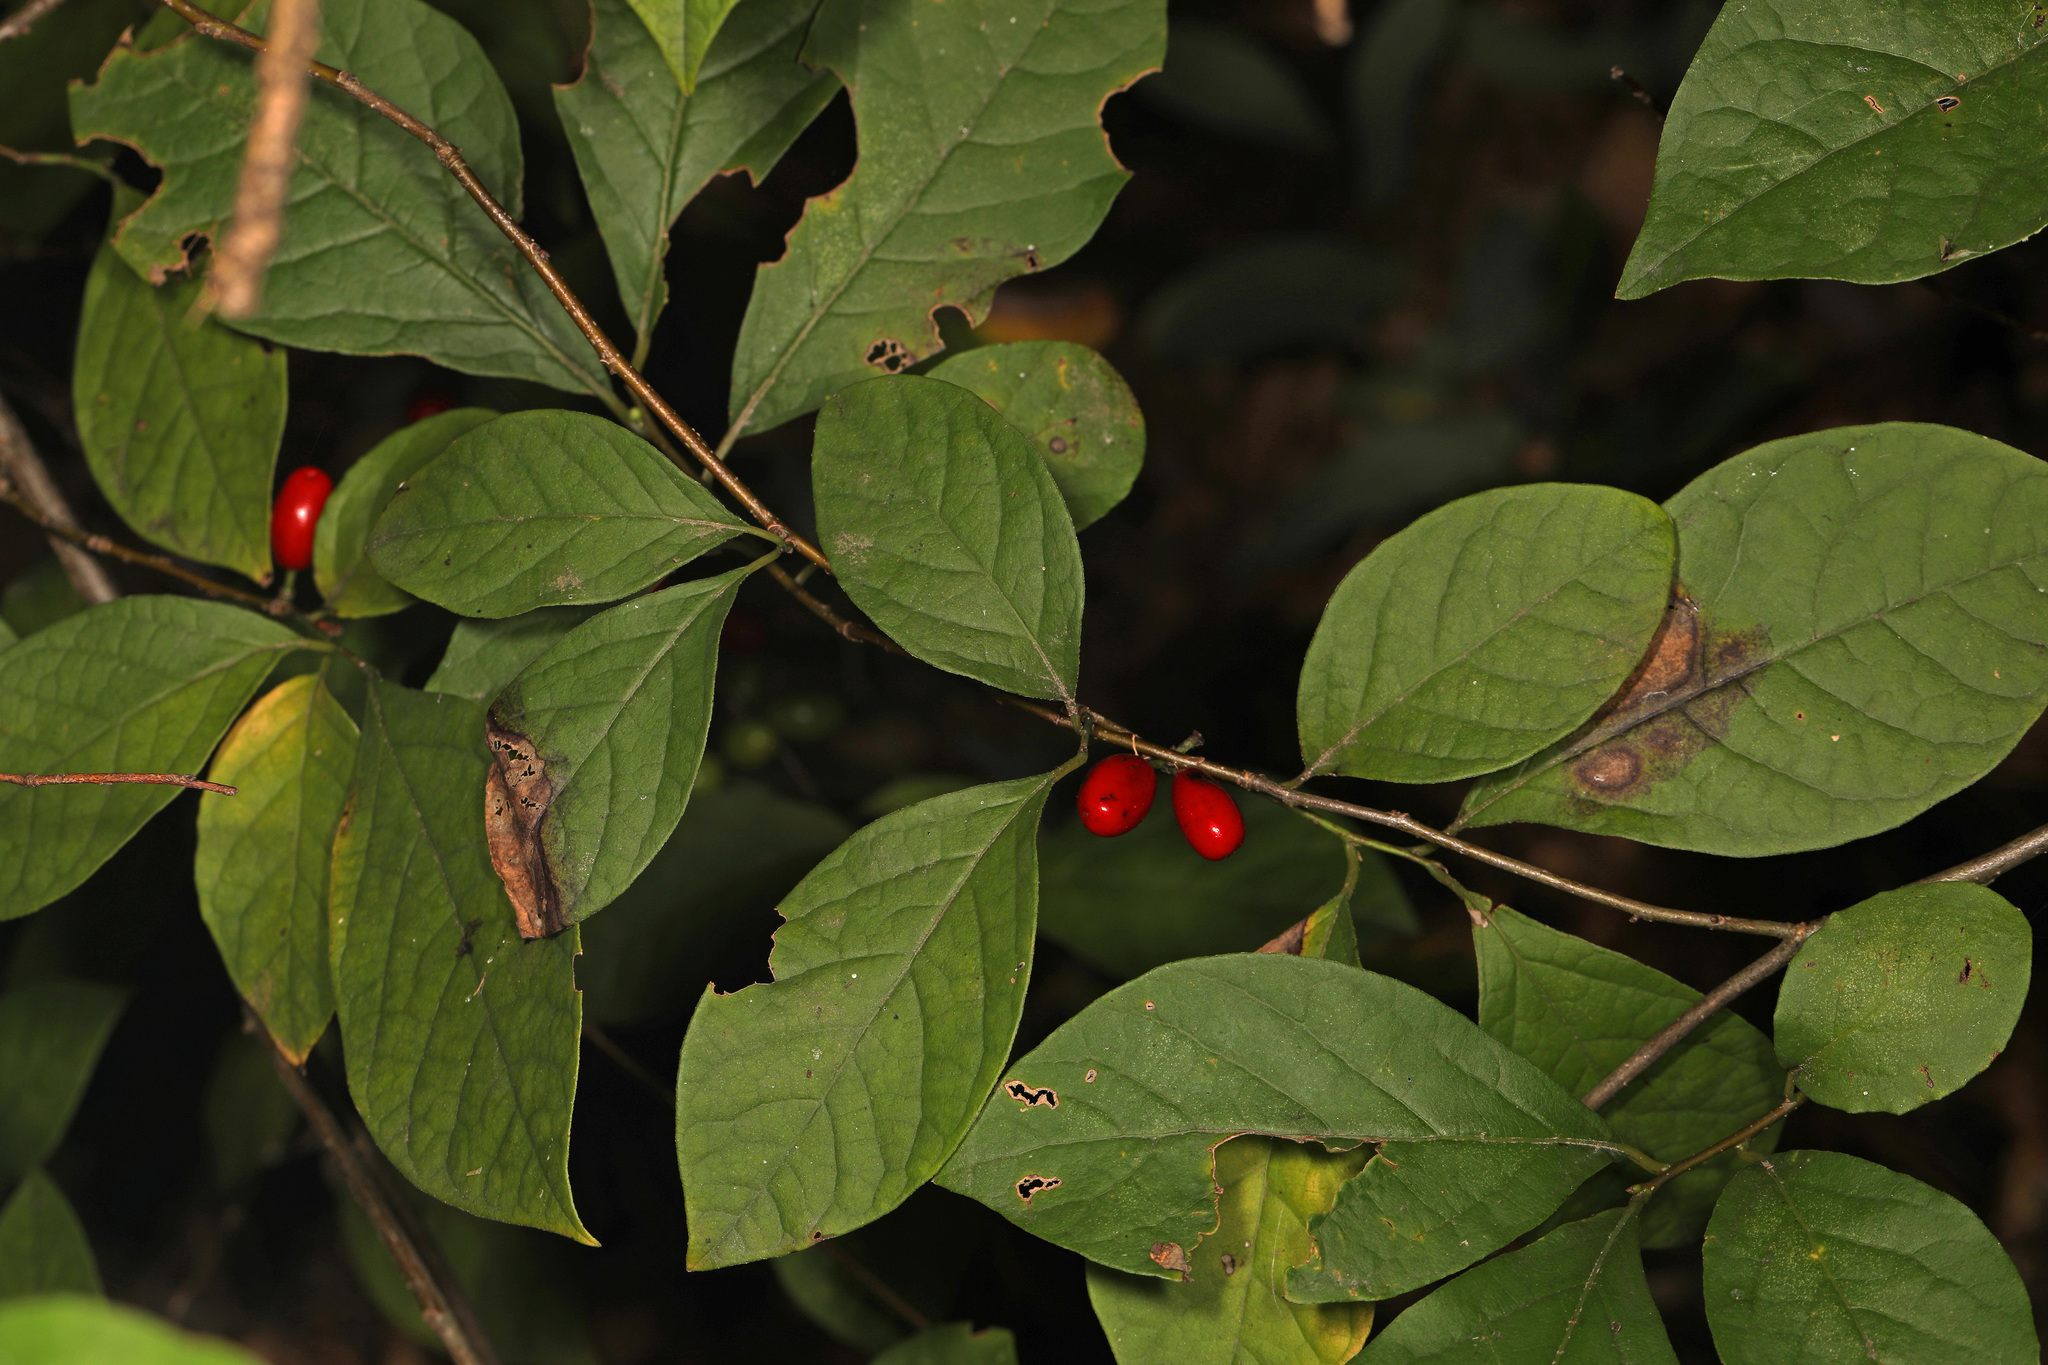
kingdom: Plantae
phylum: Tracheophyta
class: Magnoliopsida
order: Laurales
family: Lauraceae
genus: Lindera
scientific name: Lindera benzoin
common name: Spicebush
